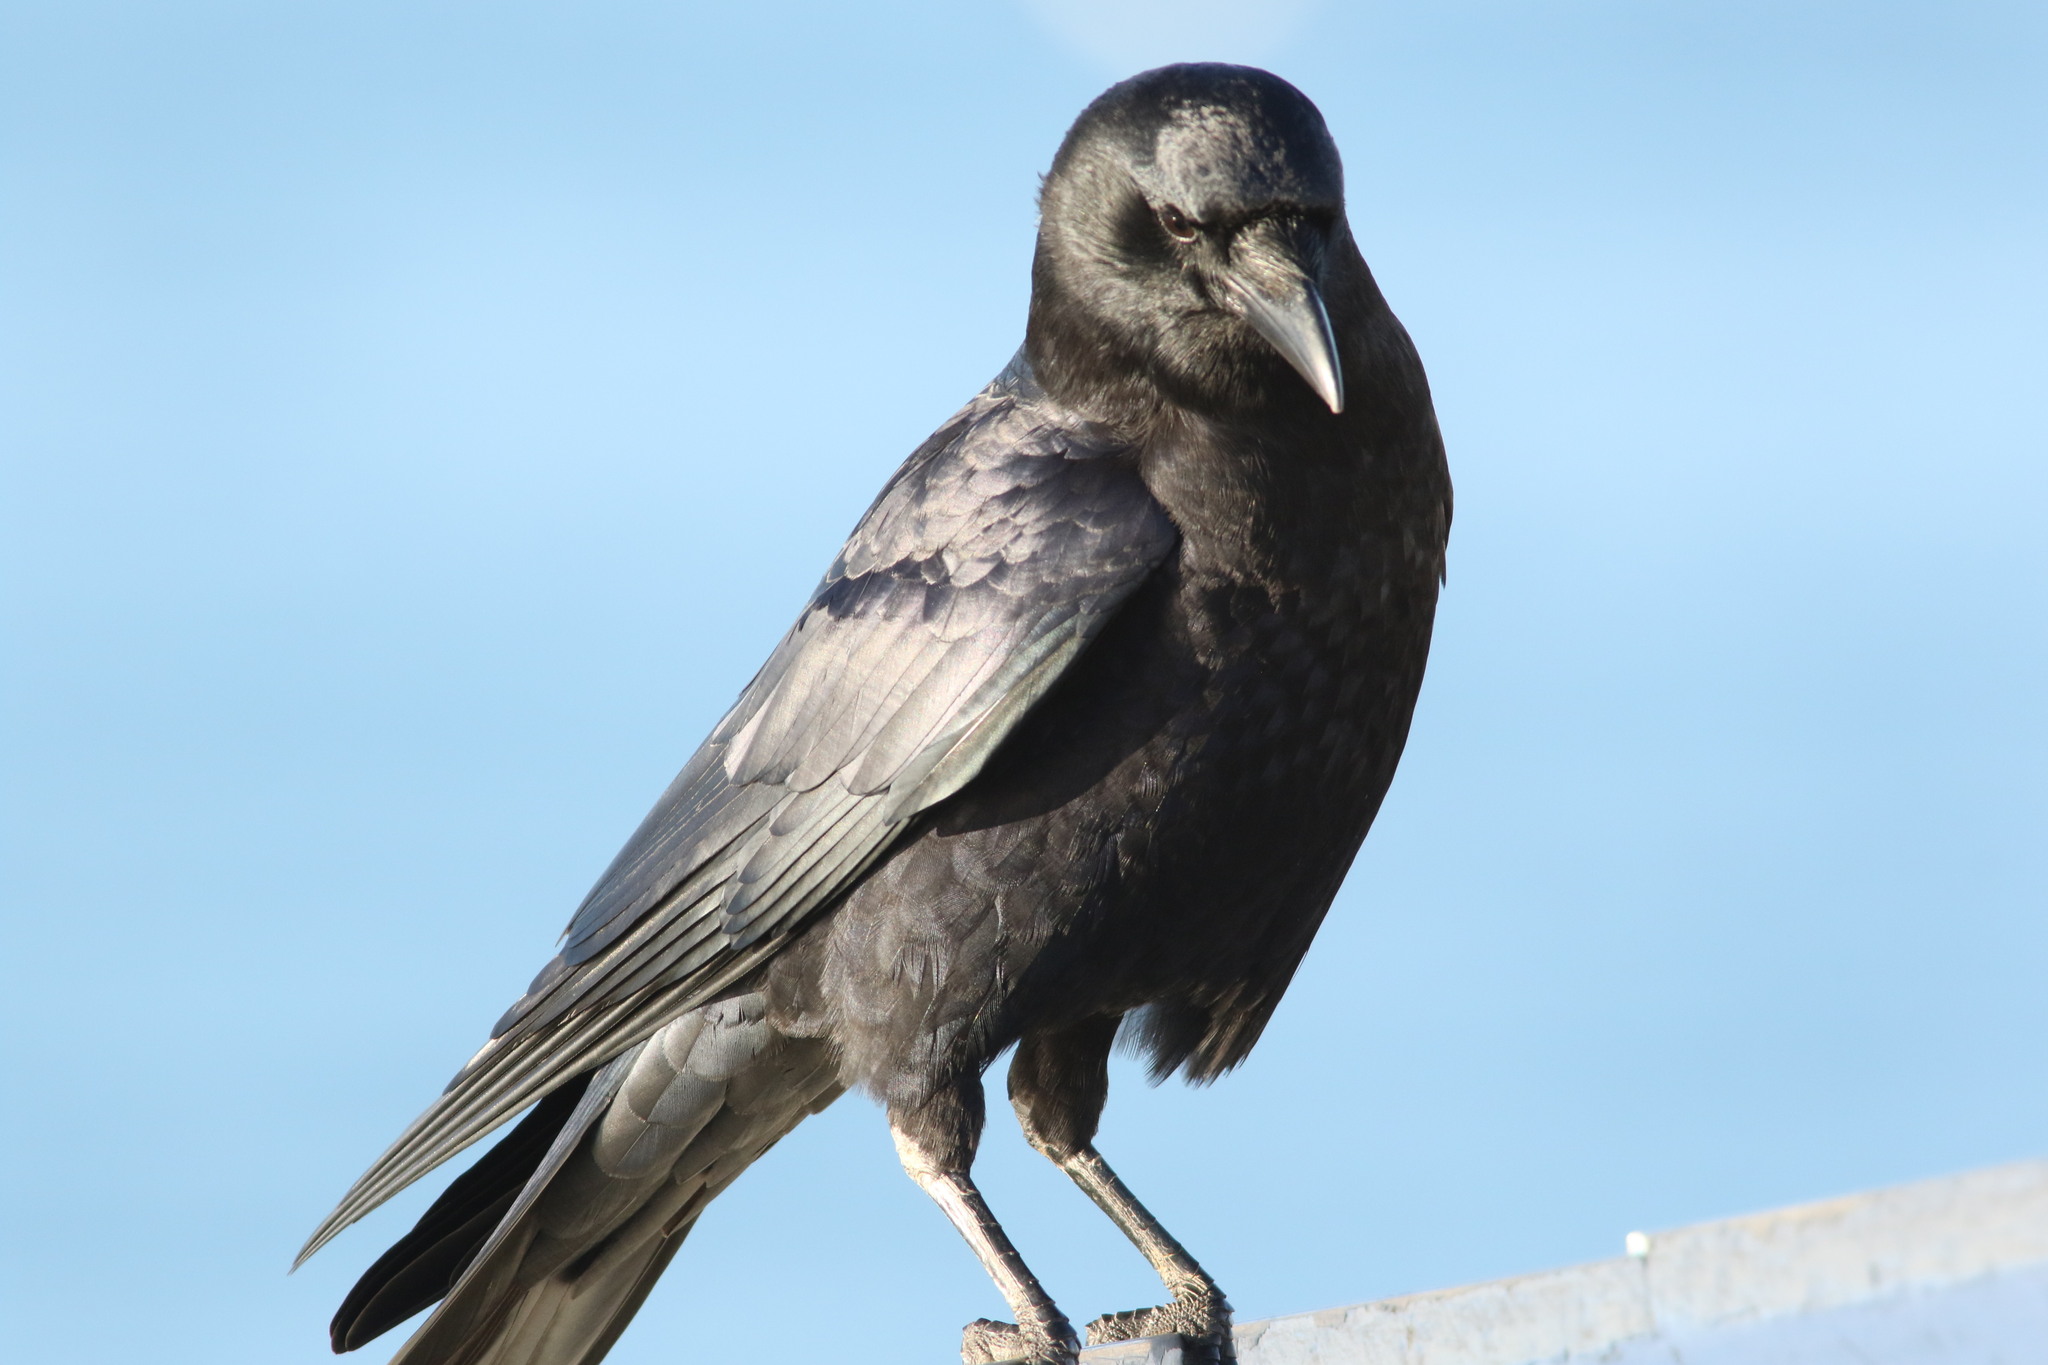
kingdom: Animalia
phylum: Chordata
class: Aves
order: Passeriformes
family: Corvidae
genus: Corvus
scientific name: Corvus brachyrhynchos
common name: American crow
